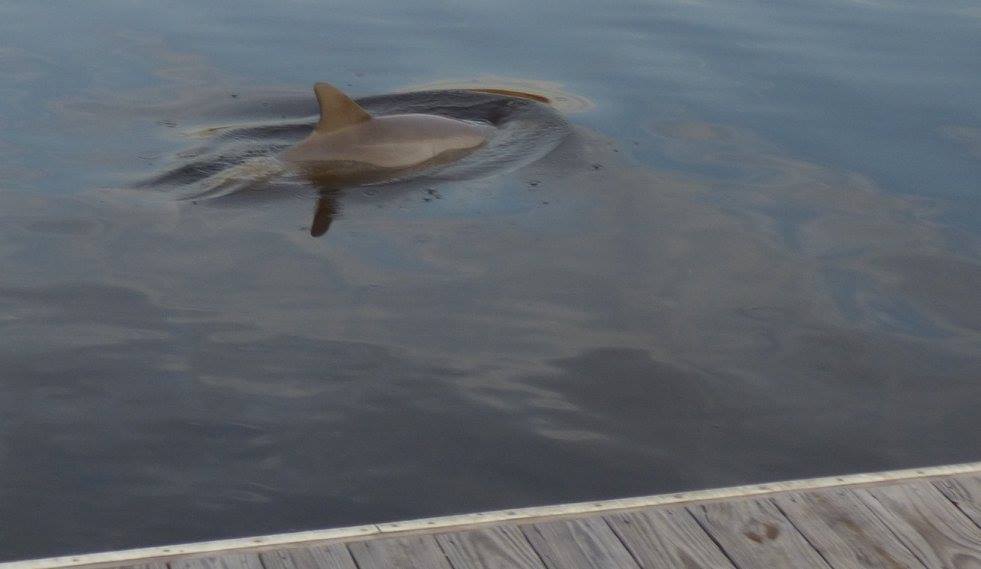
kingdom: Animalia
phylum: Chordata
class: Mammalia
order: Cetacea
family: Delphinidae
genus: Tursiops
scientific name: Tursiops truncatus
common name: Bottlenose dolphin
